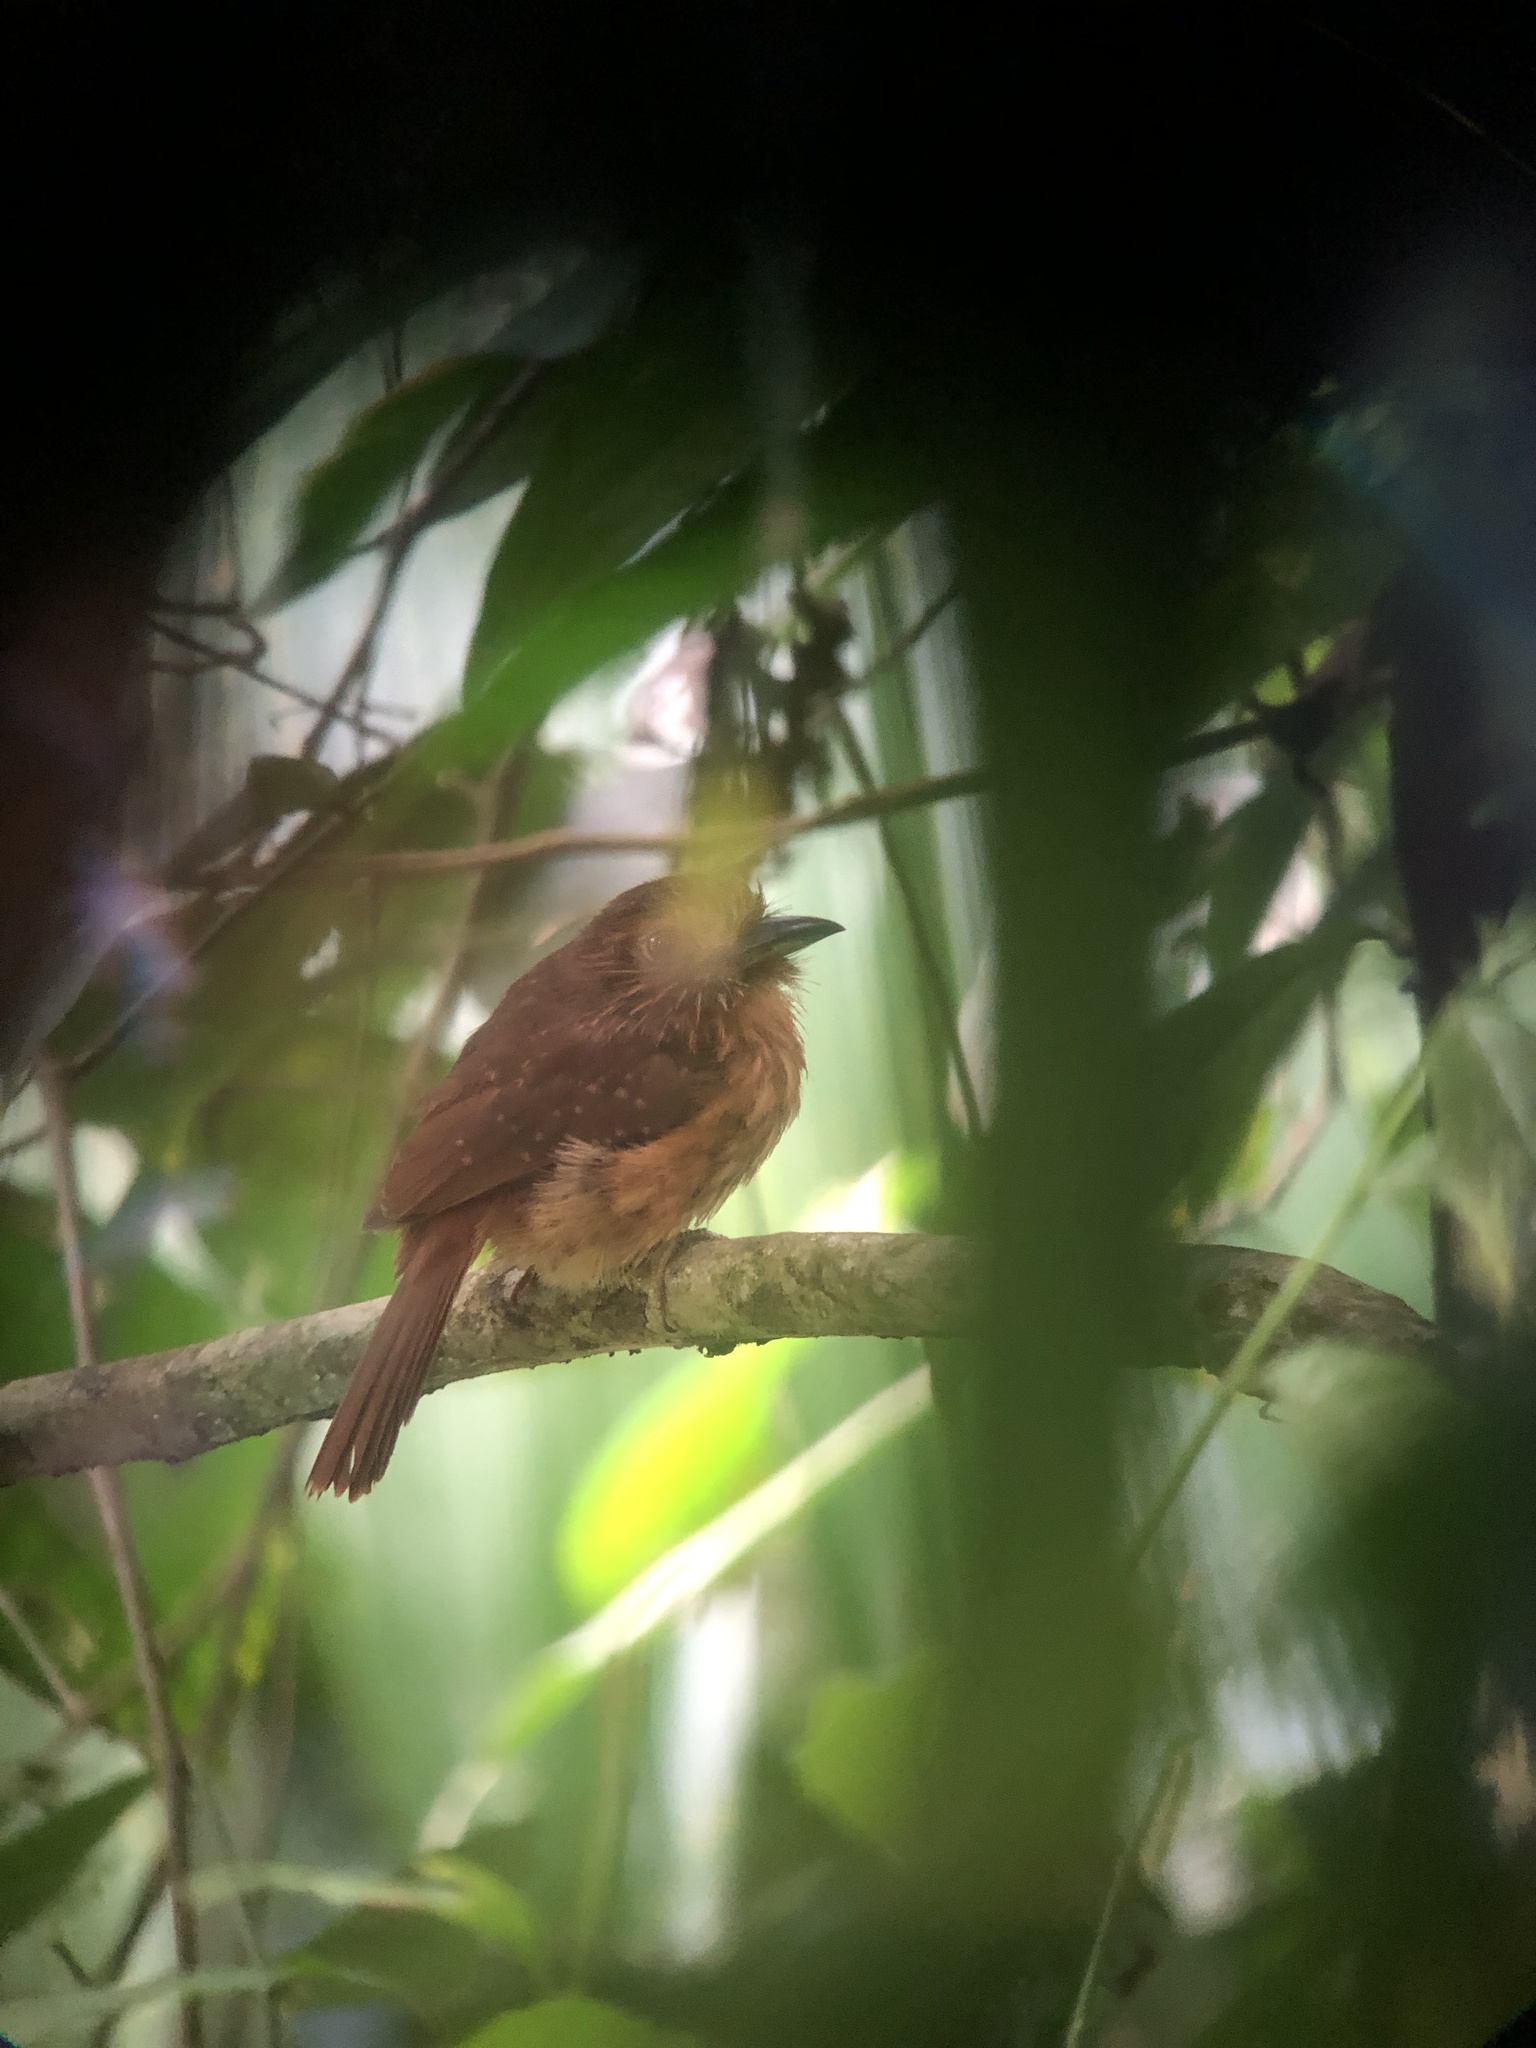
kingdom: Animalia
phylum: Chordata
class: Aves
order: Piciformes
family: Bucconidae
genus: Malacoptila
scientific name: Malacoptila panamensis
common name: White-whiskered puffbird
